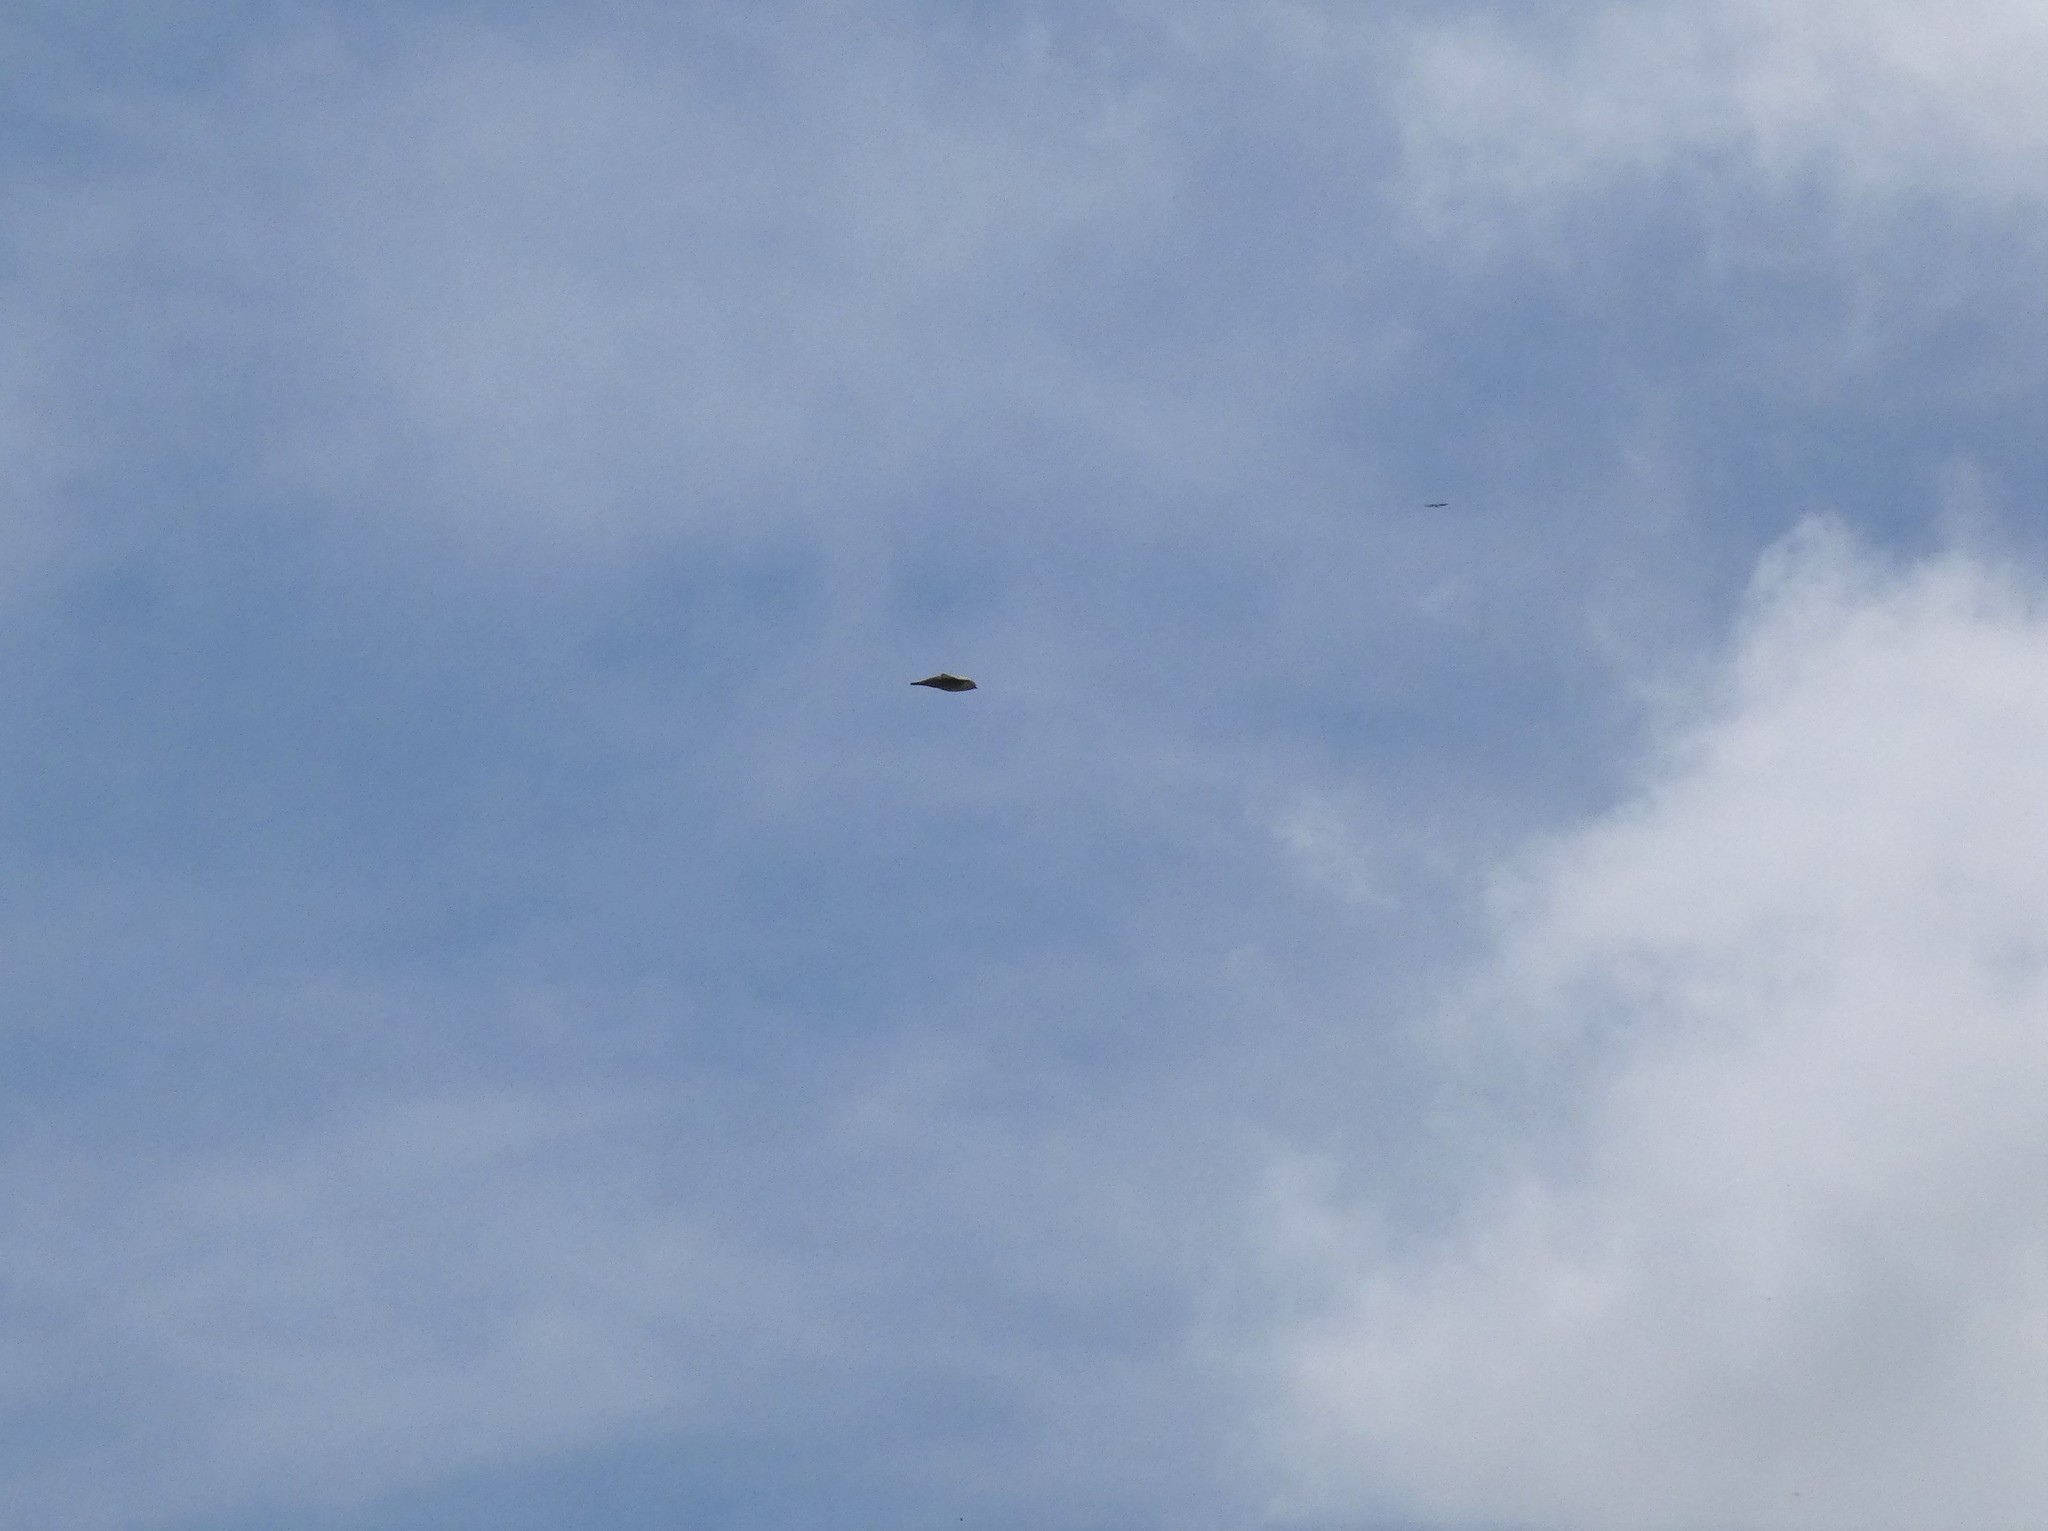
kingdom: Animalia
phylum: Chordata
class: Aves
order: Passeriformes
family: Hirundinidae
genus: Ptyonoprogne
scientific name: Ptyonoprogne rupestris
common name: Eurasian crag martin
